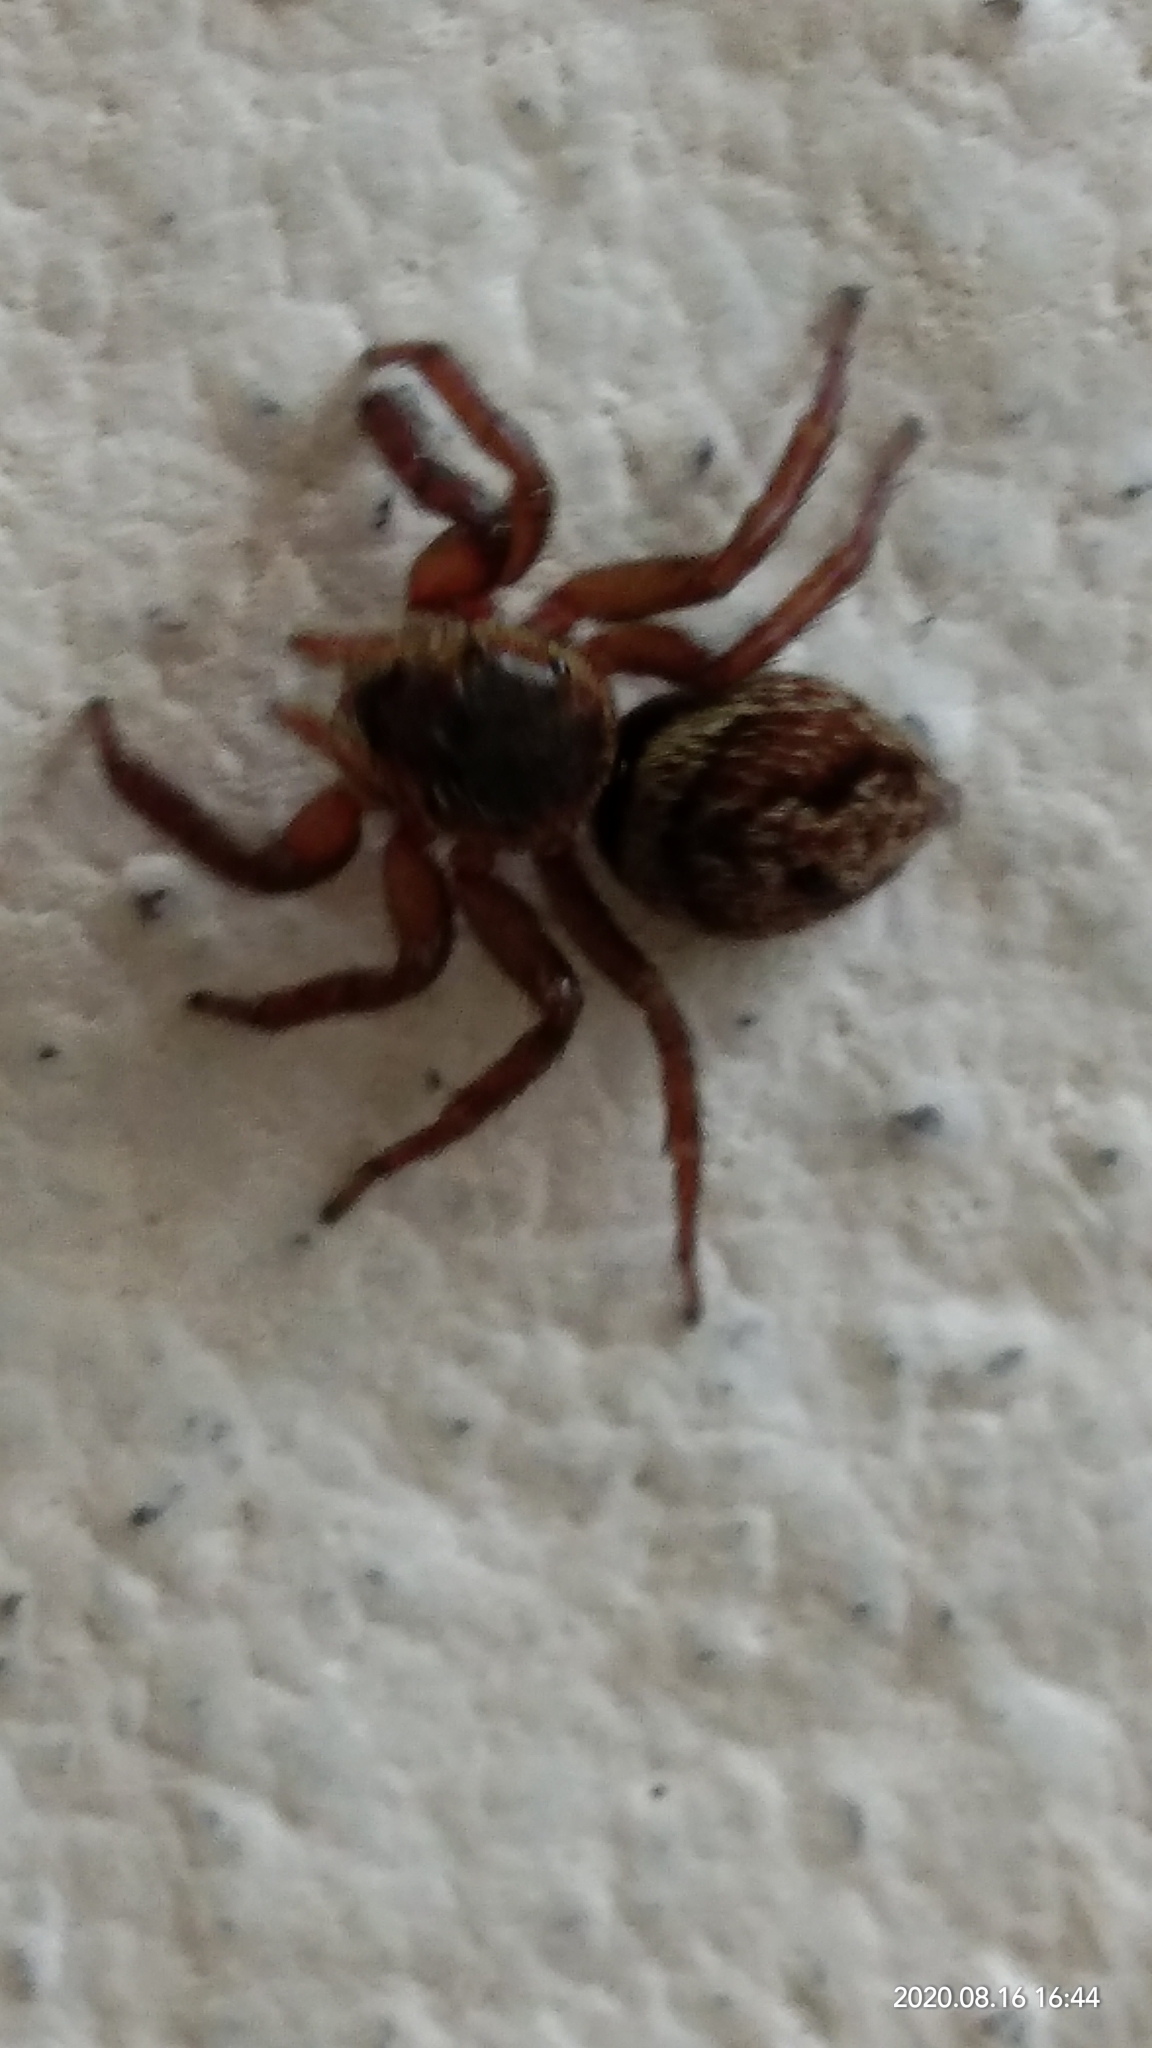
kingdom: Animalia
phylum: Arthropoda
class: Arachnida
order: Araneae
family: Salticidae
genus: Hasarius
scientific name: Hasarius adansoni
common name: Jumping spider
